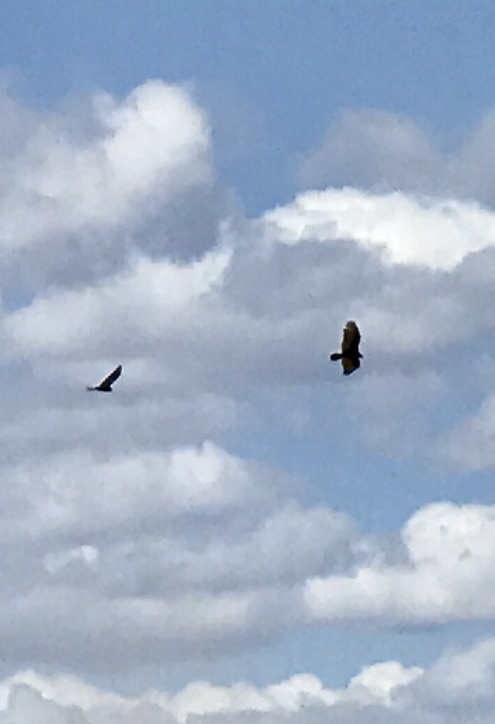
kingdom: Animalia
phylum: Chordata
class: Aves
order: Accipitriformes
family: Cathartidae
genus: Cathartes
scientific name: Cathartes aura
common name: Turkey vulture
